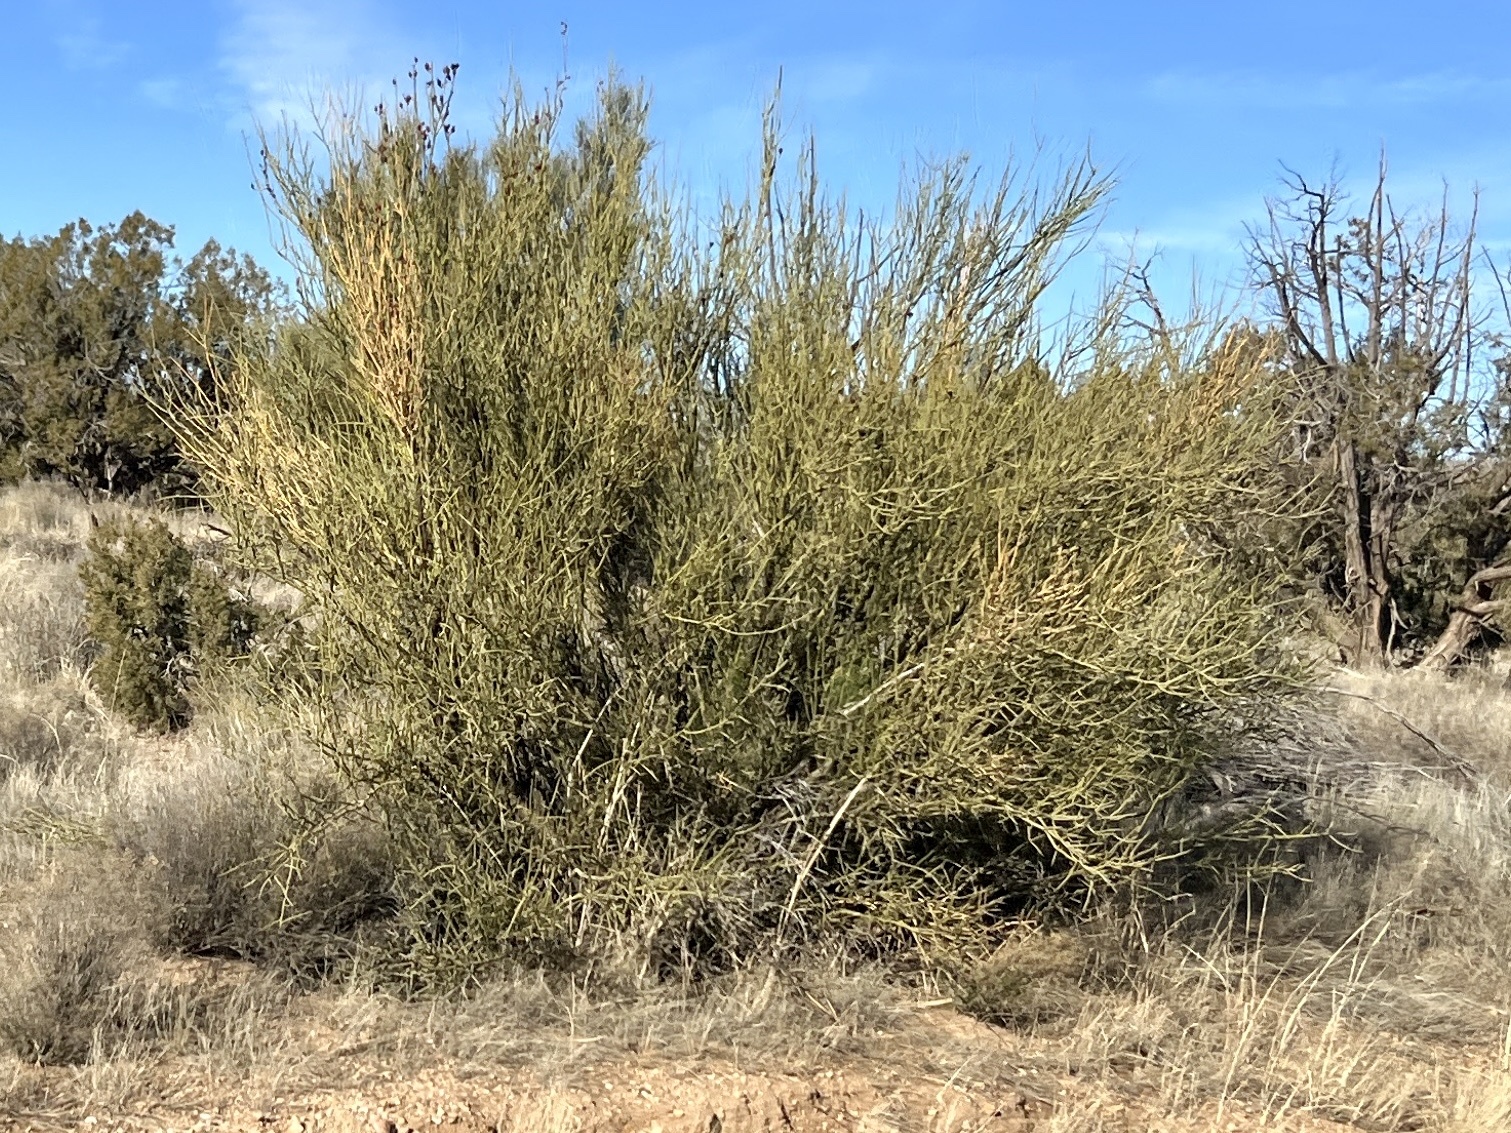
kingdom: Plantae
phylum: Tracheophyta
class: Magnoliopsida
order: Celastrales
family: Celastraceae
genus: Canotia
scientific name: Canotia holacantha
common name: Crucifixion thorns
